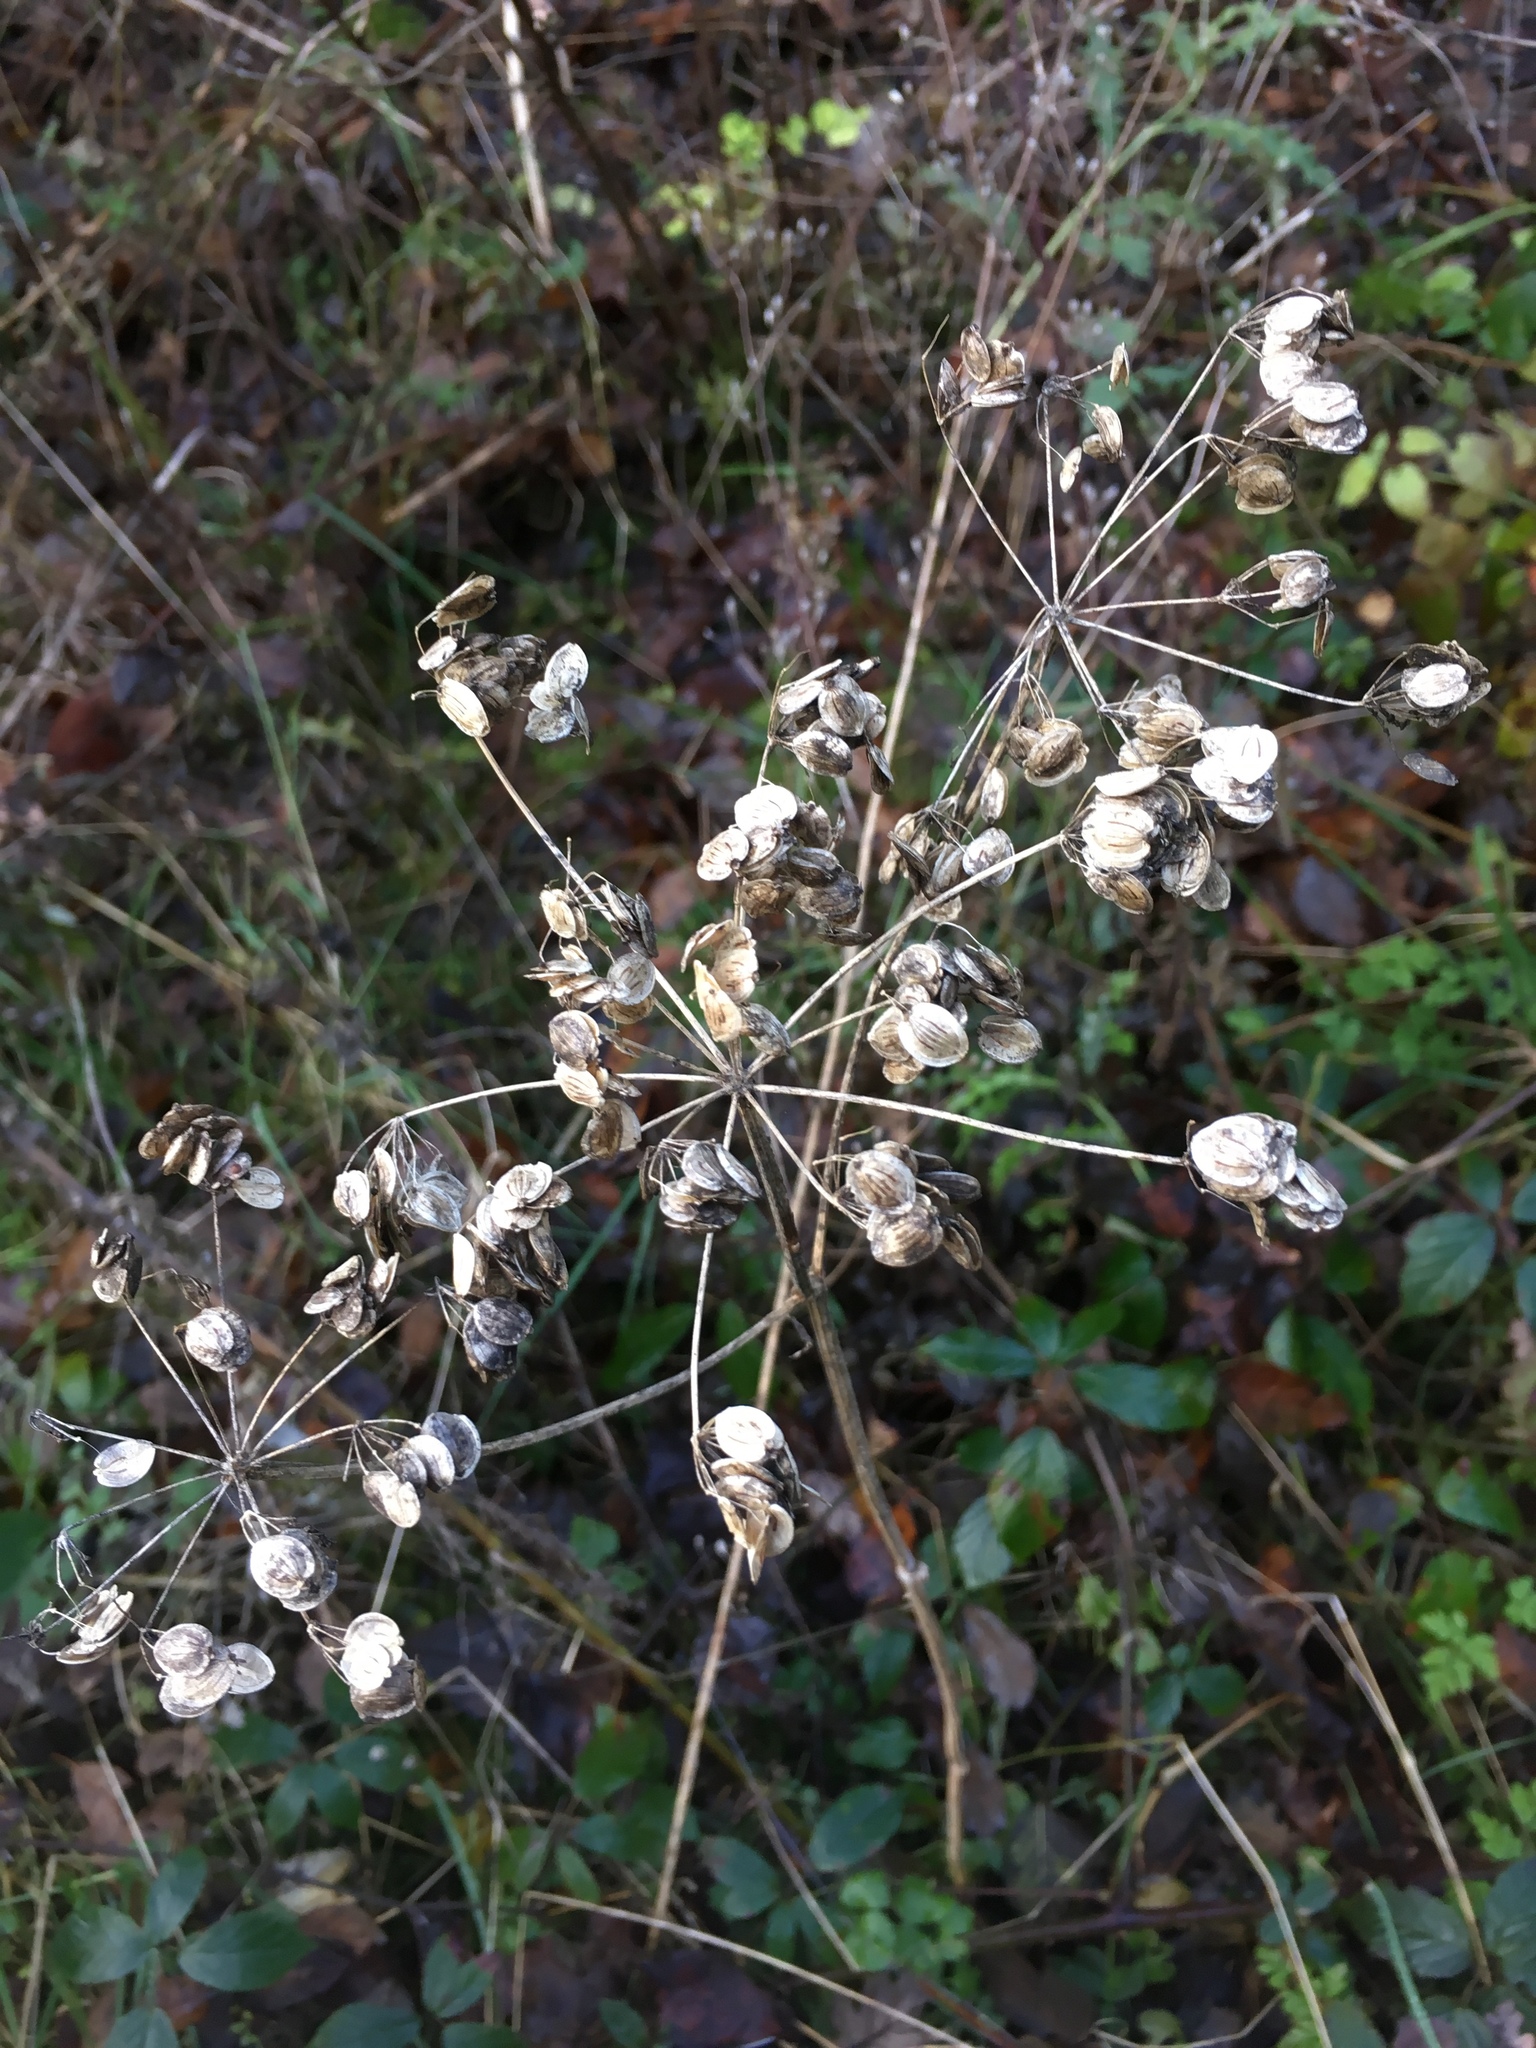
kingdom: Plantae
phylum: Tracheophyta
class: Magnoliopsida
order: Apiales
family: Apiaceae
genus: Heracleum
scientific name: Heracleum sphondylium
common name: Hogweed
